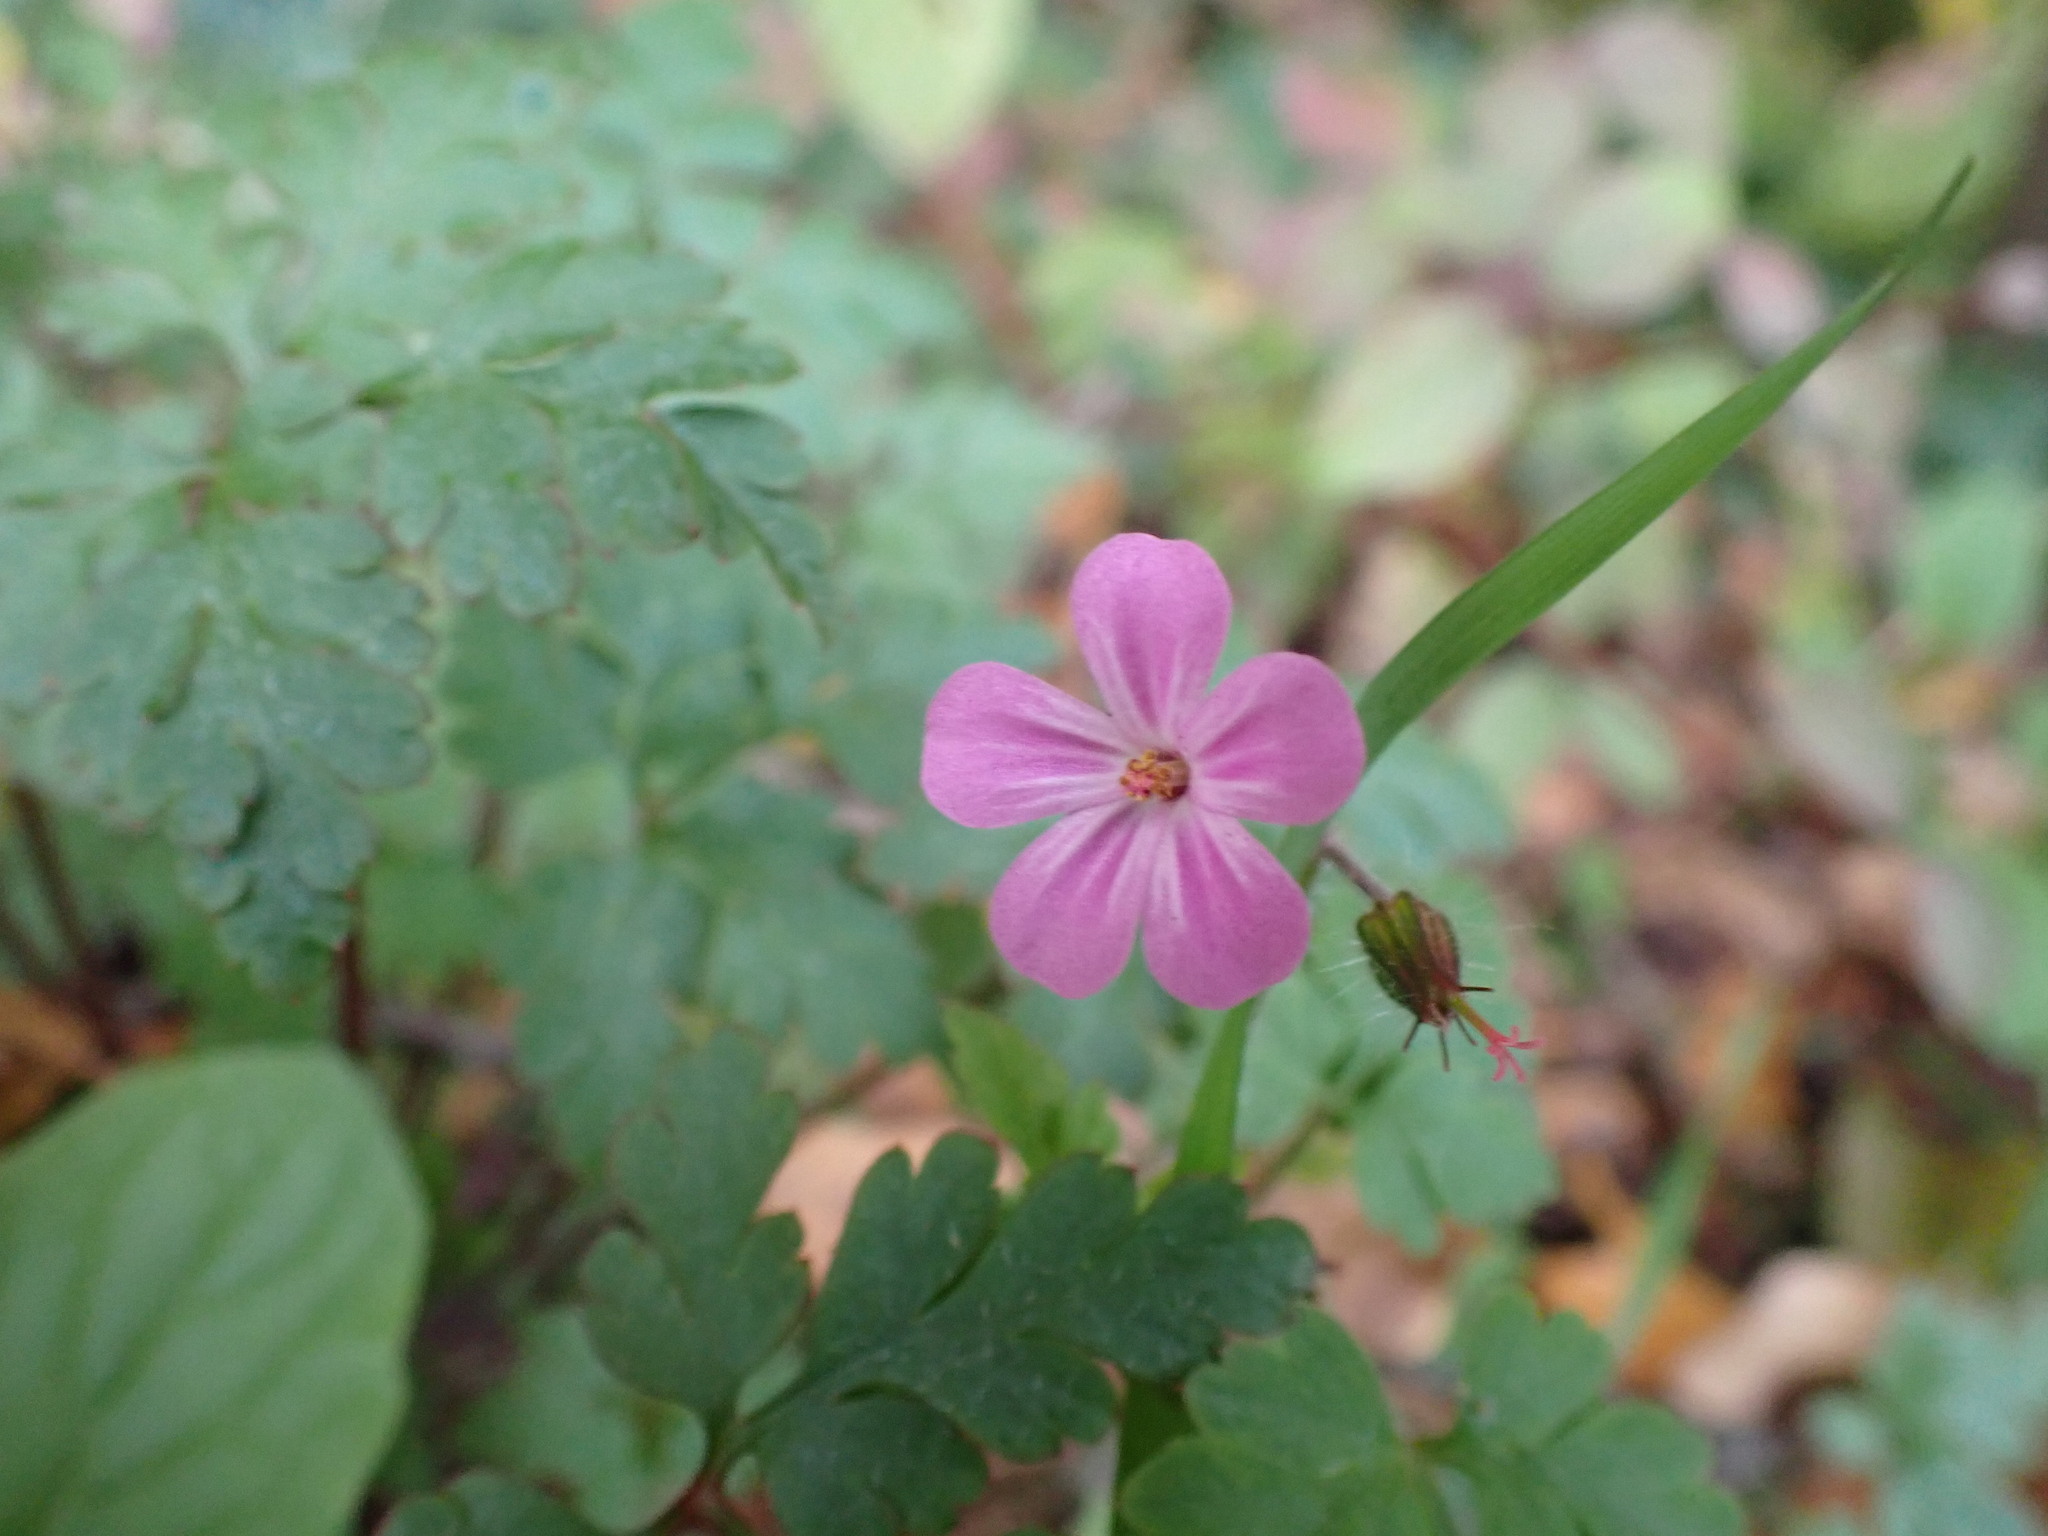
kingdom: Plantae
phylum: Tracheophyta
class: Magnoliopsida
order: Geraniales
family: Geraniaceae
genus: Geranium
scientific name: Geranium robertianum
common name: Herb-robert
